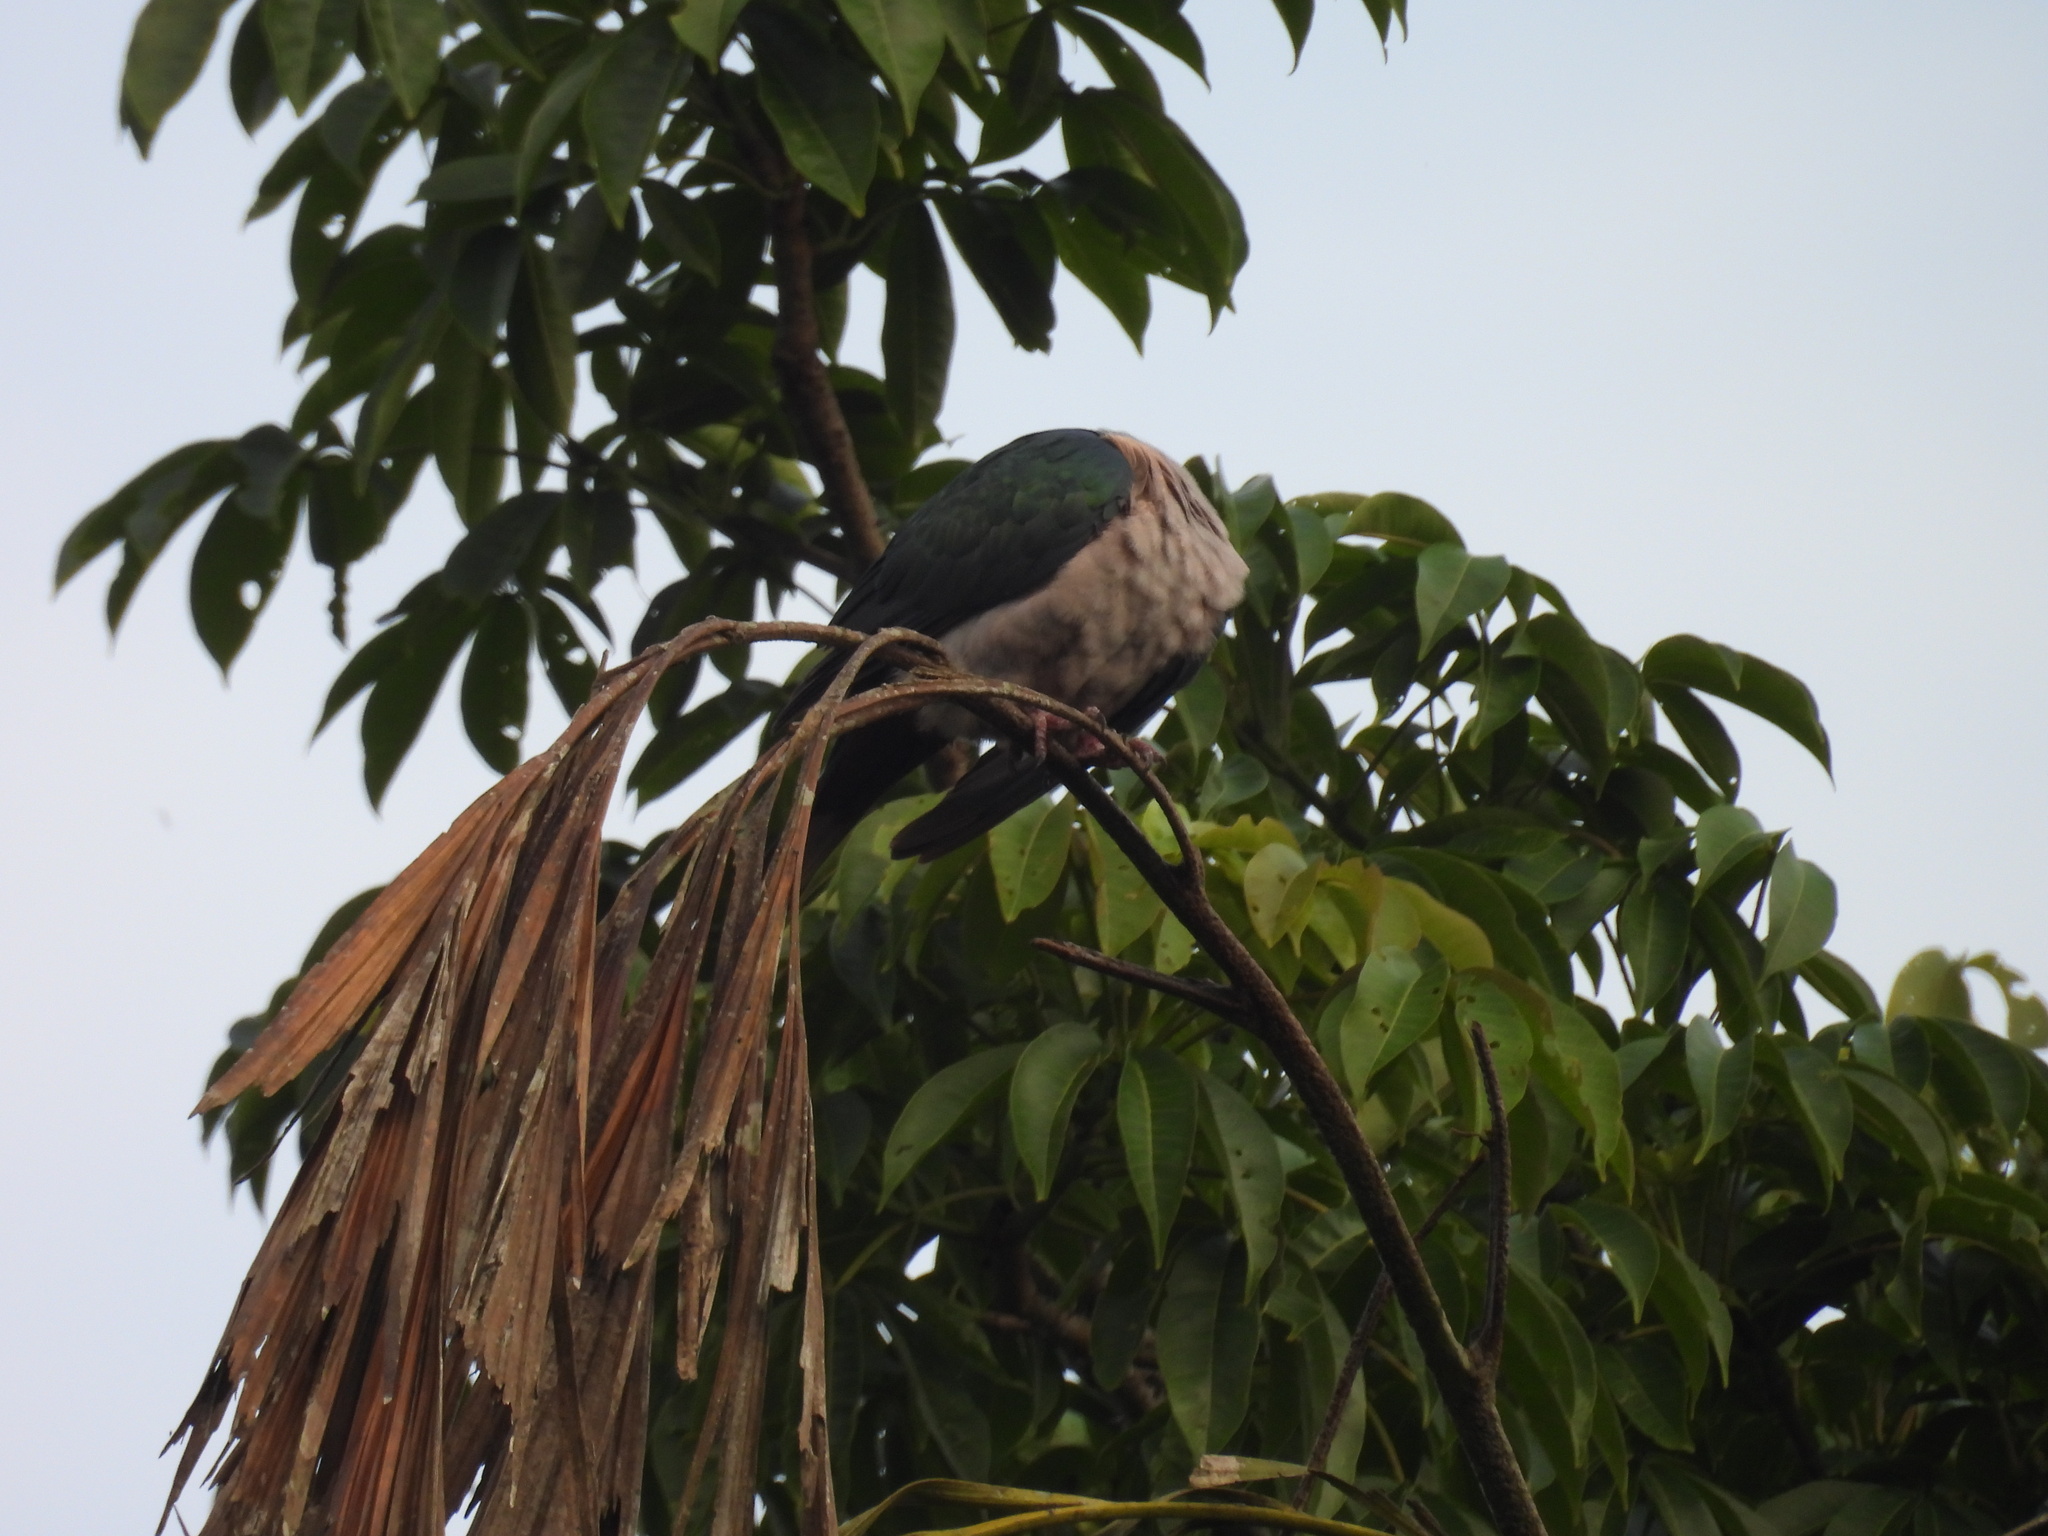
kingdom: Animalia
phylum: Chordata
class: Aves
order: Columbiformes
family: Columbidae
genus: Ducula
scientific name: Ducula aenea
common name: Green imperial pigeon
